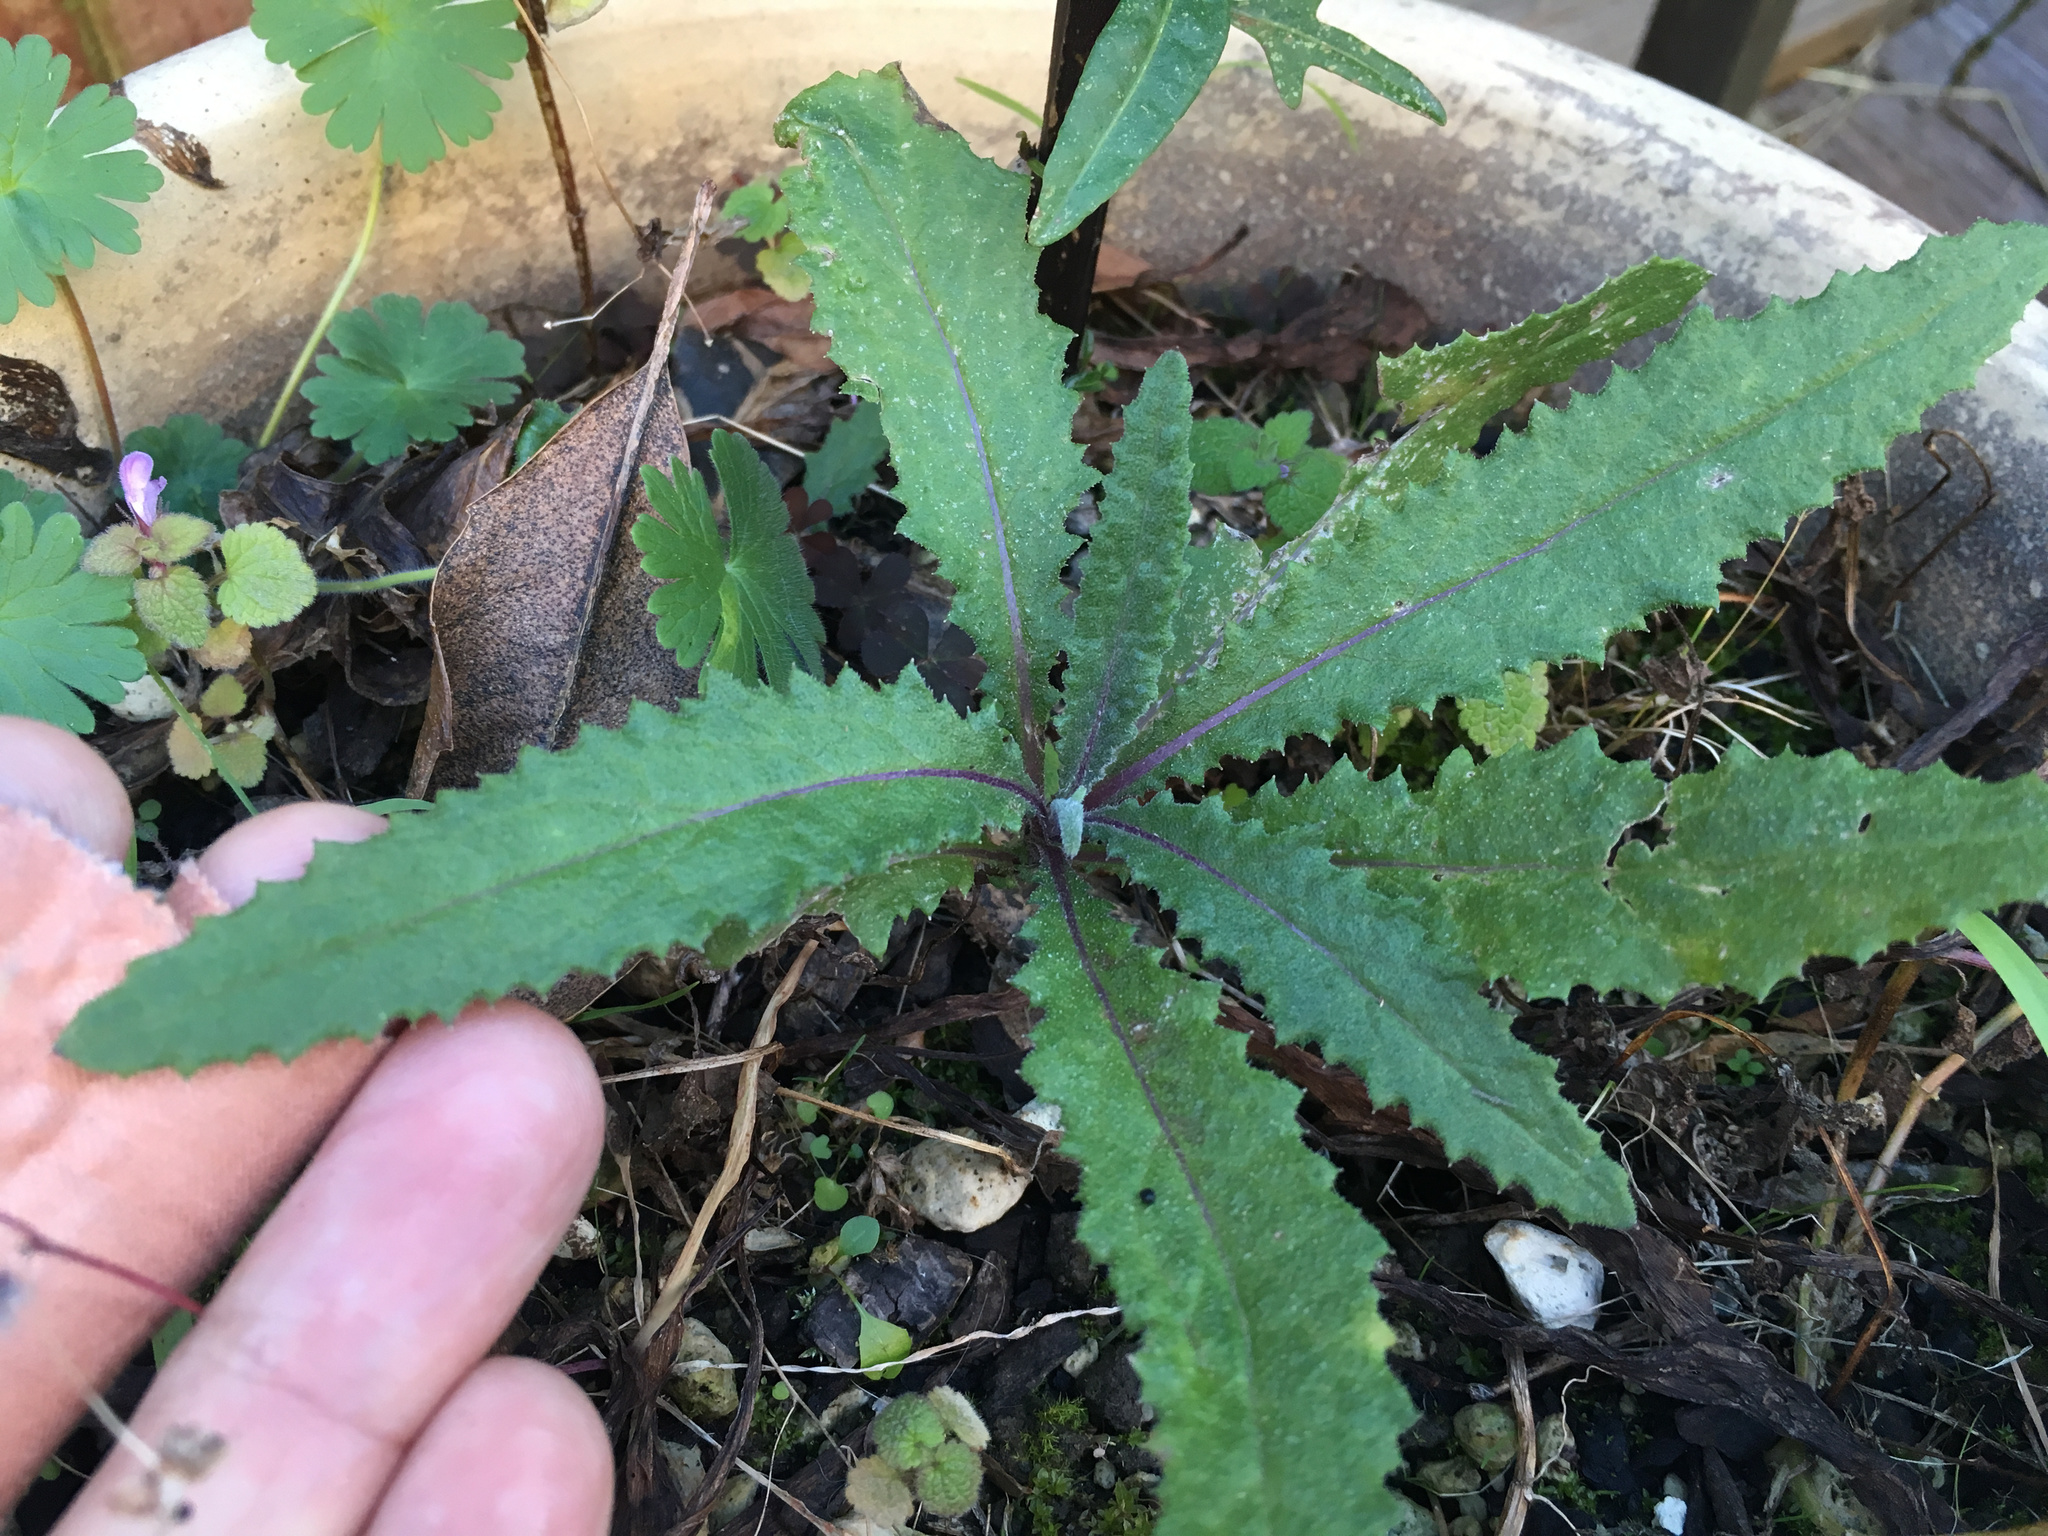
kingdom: Plantae
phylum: Tracheophyta
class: Magnoliopsida
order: Asterales
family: Asteraceae
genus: Senecio
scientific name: Senecio minimus
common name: Toothed fireweed
